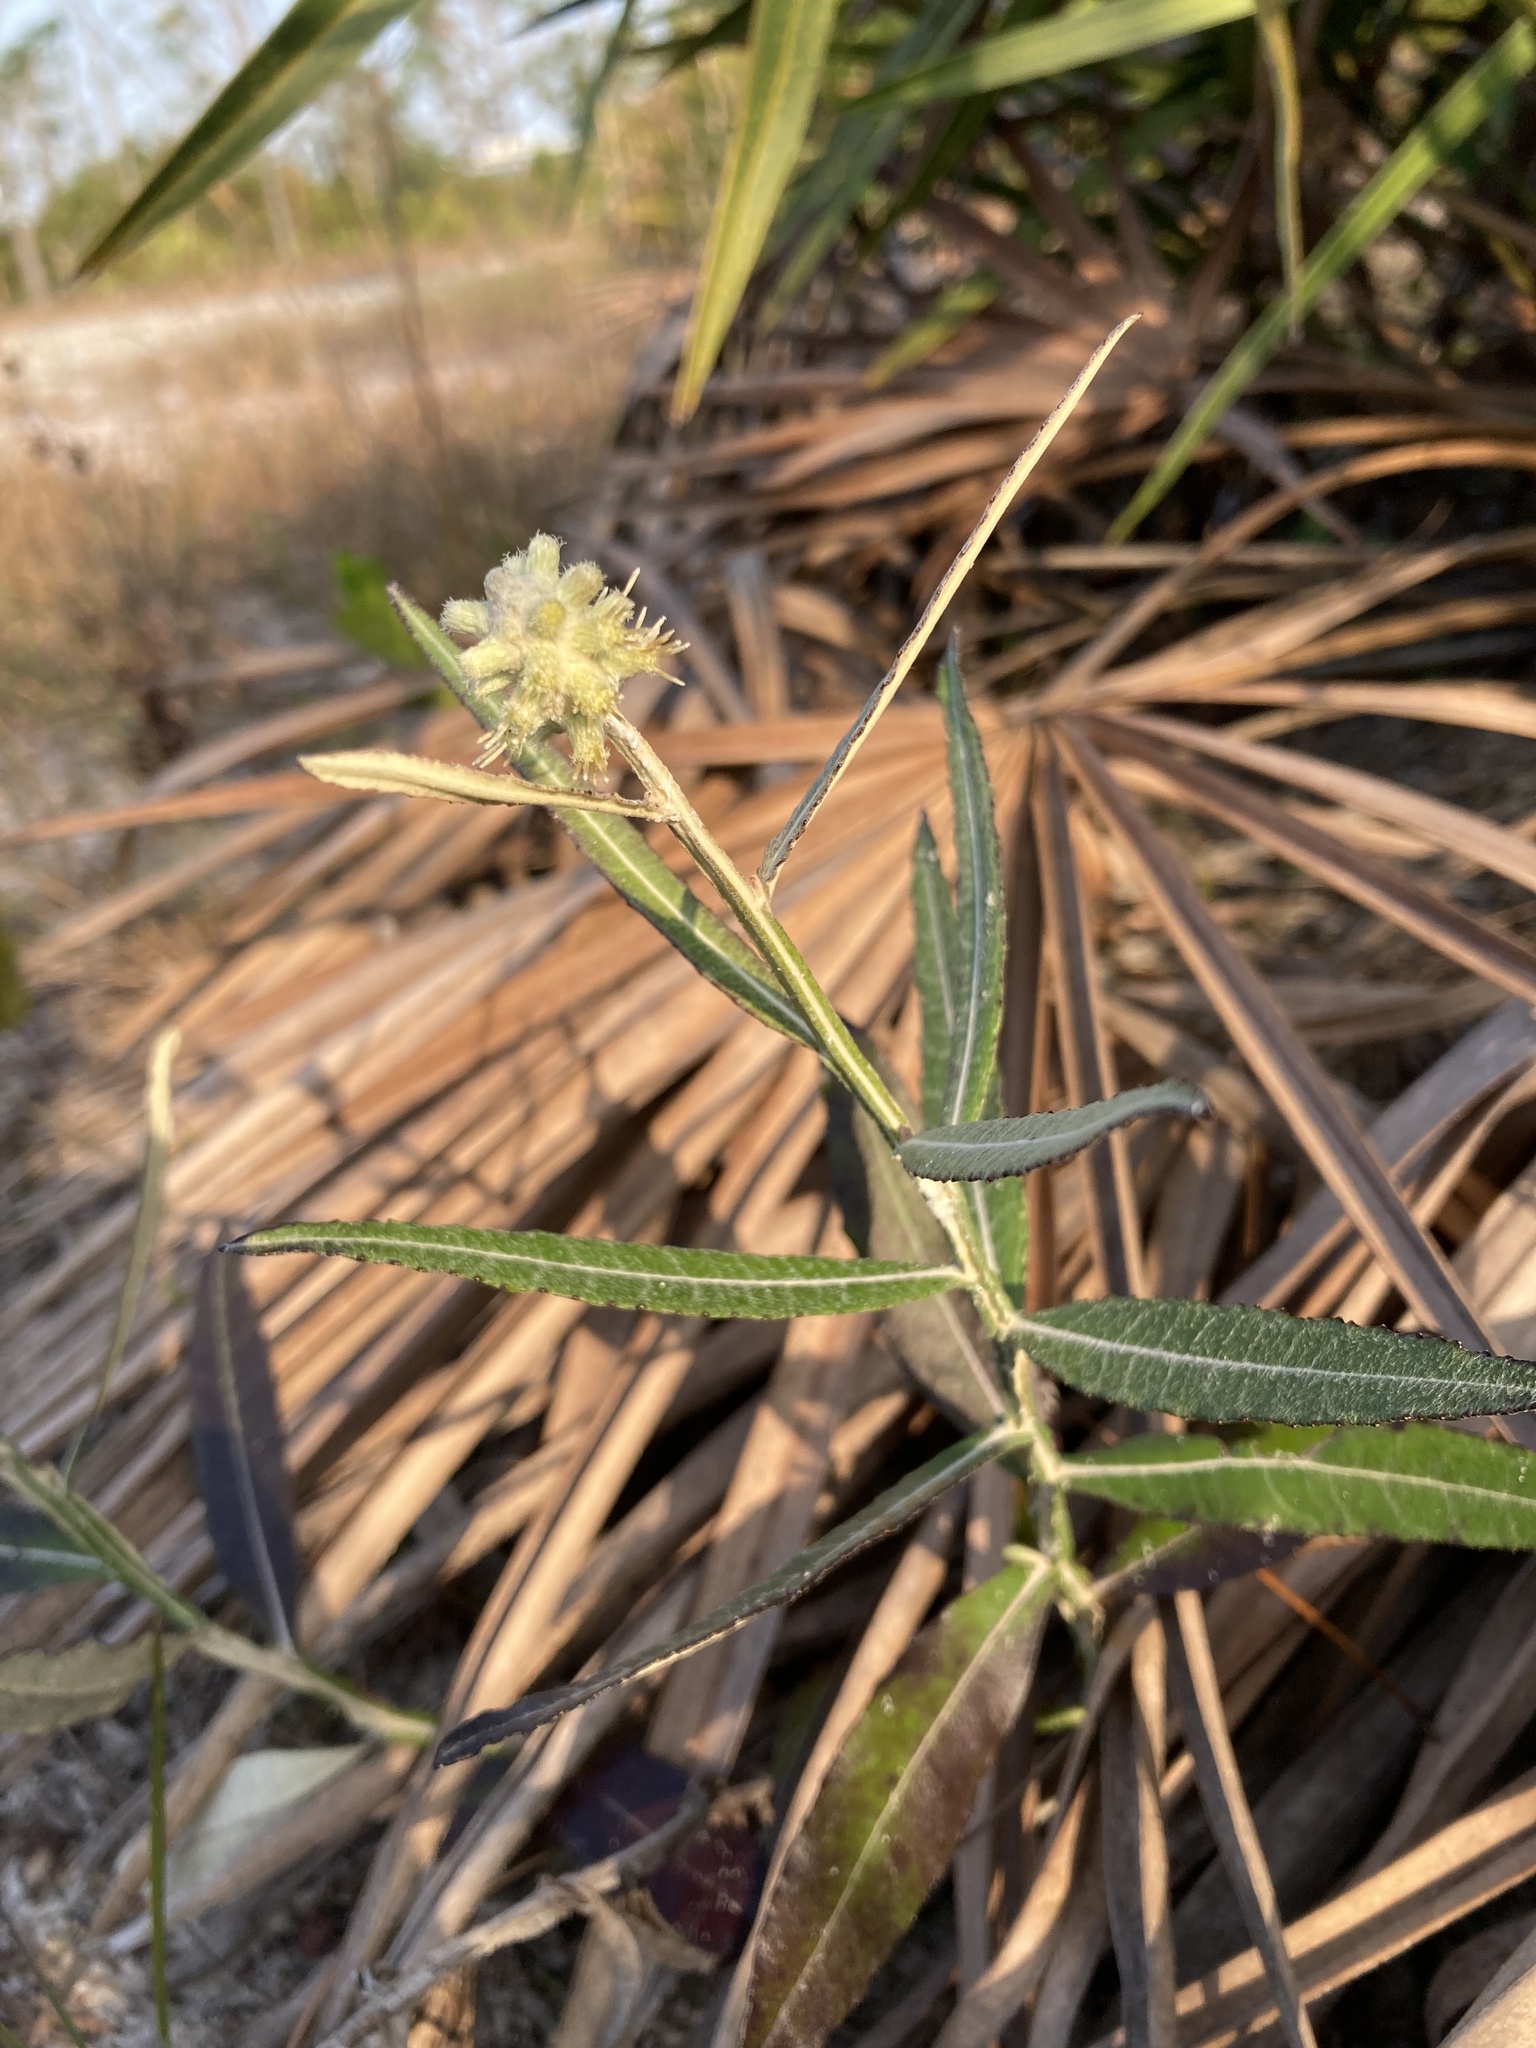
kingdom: Plantae
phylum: Tracheophyta
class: Magnoliopsida
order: Asterales
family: Asteraceae
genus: Pterocaulon
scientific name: Pterocaulon pycnostachyum
